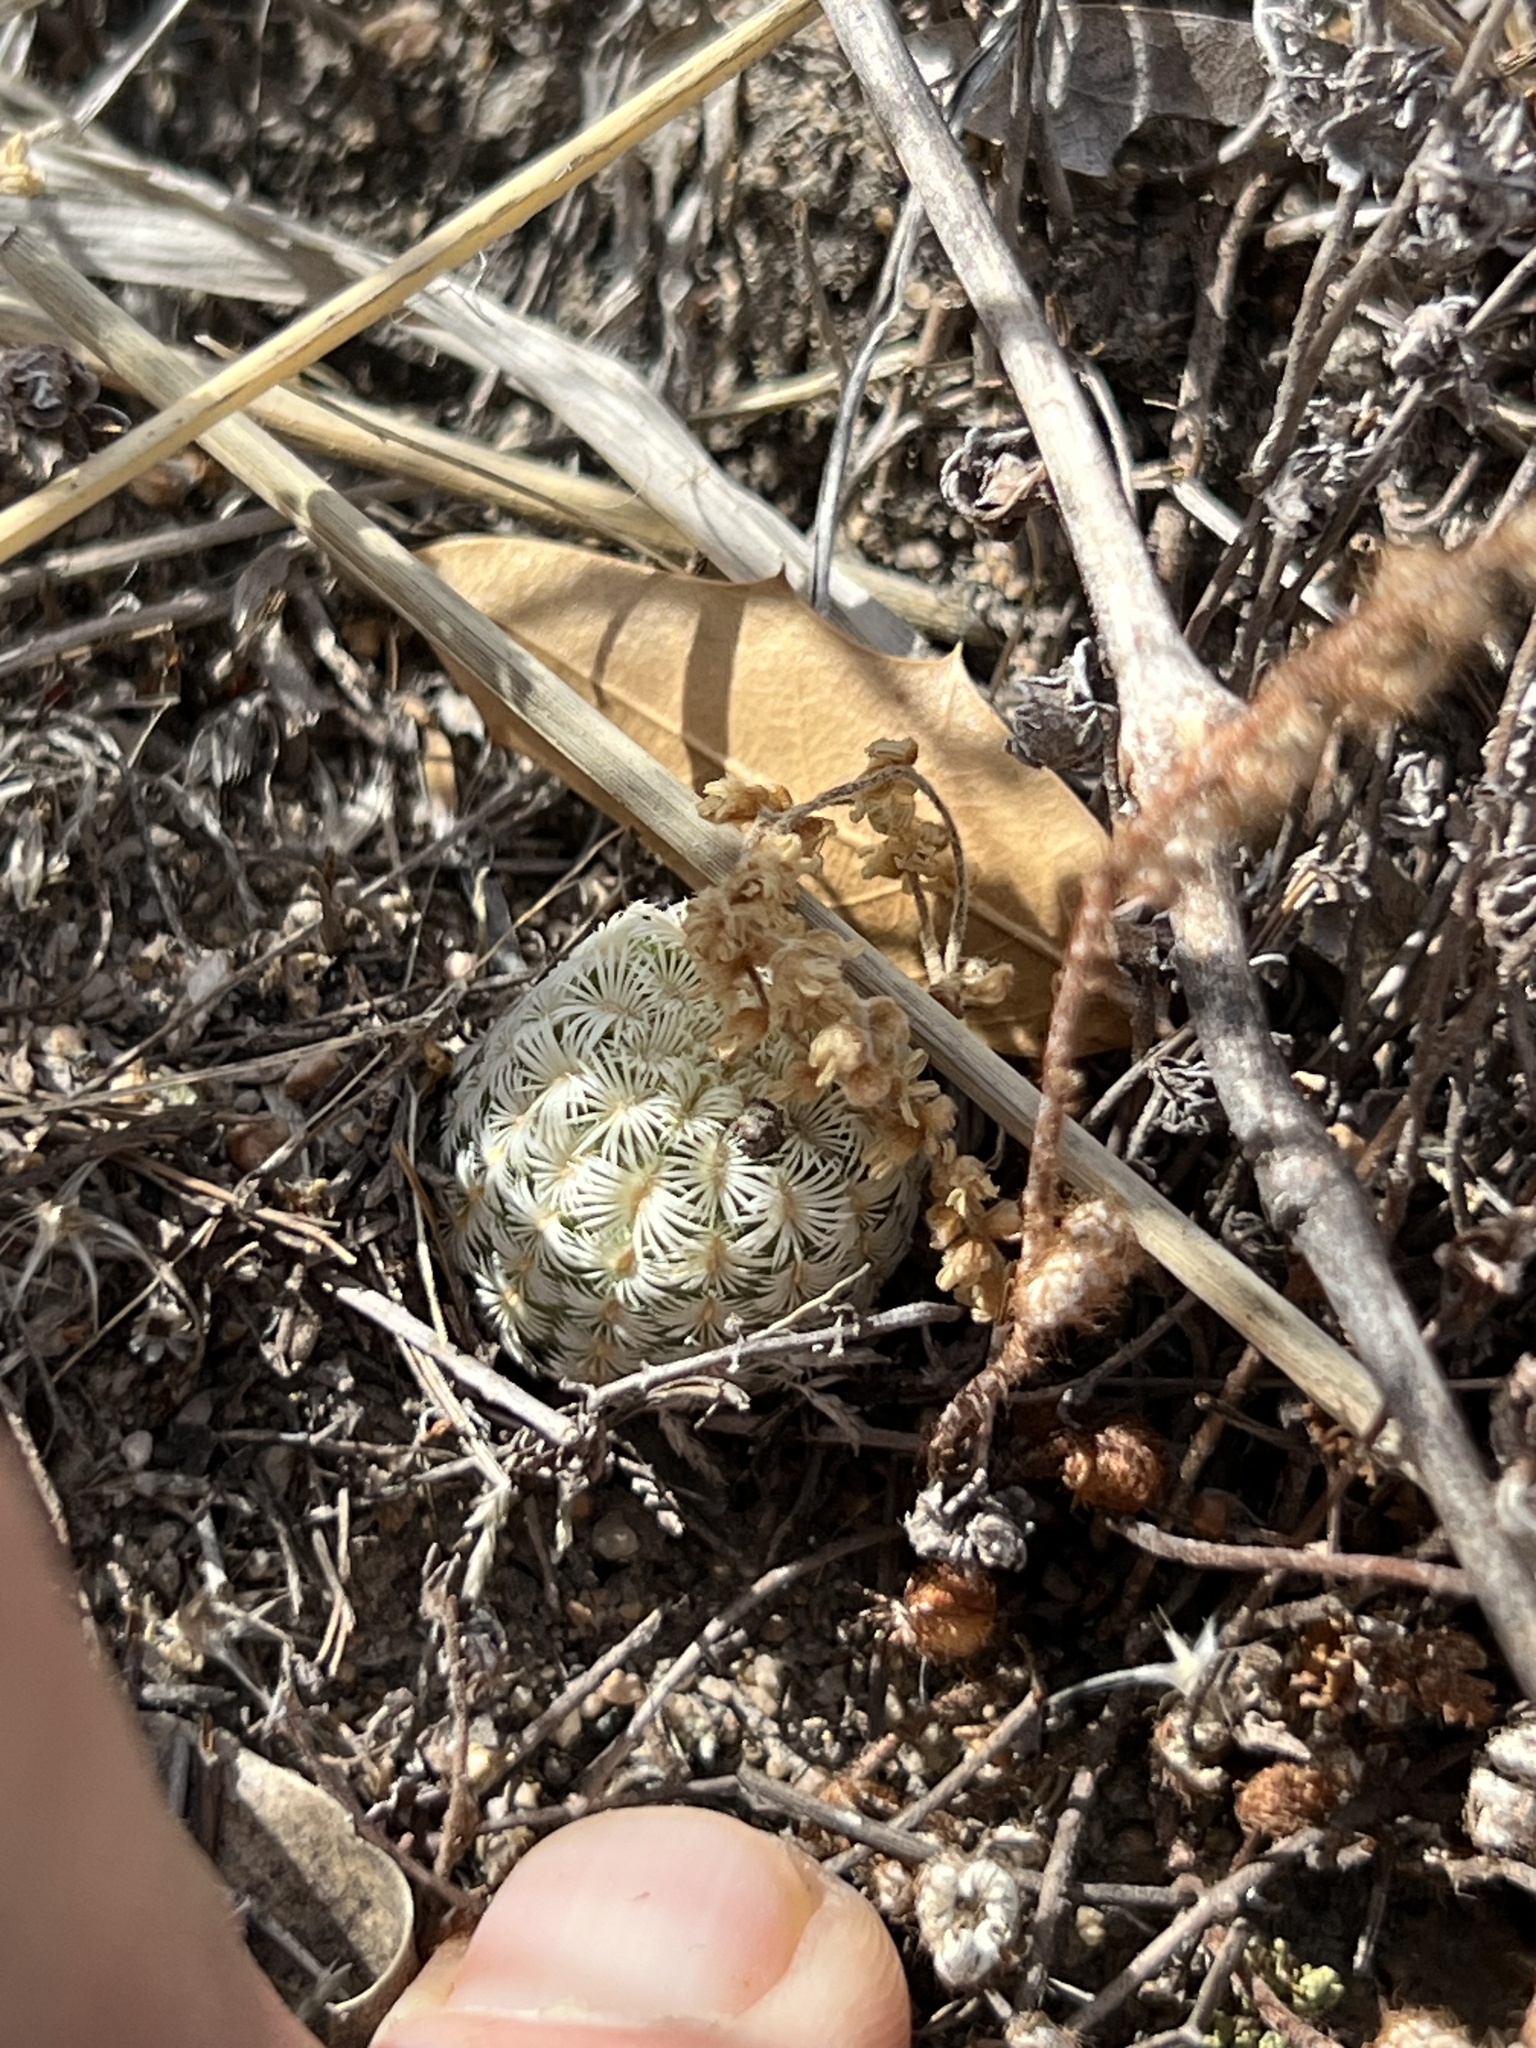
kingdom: Plantae
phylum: Tracheophyta
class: Magnoliopsida
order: Caryophyllales
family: Cactaceae
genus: Echinocereus
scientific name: Echinocereus rigidissimus
